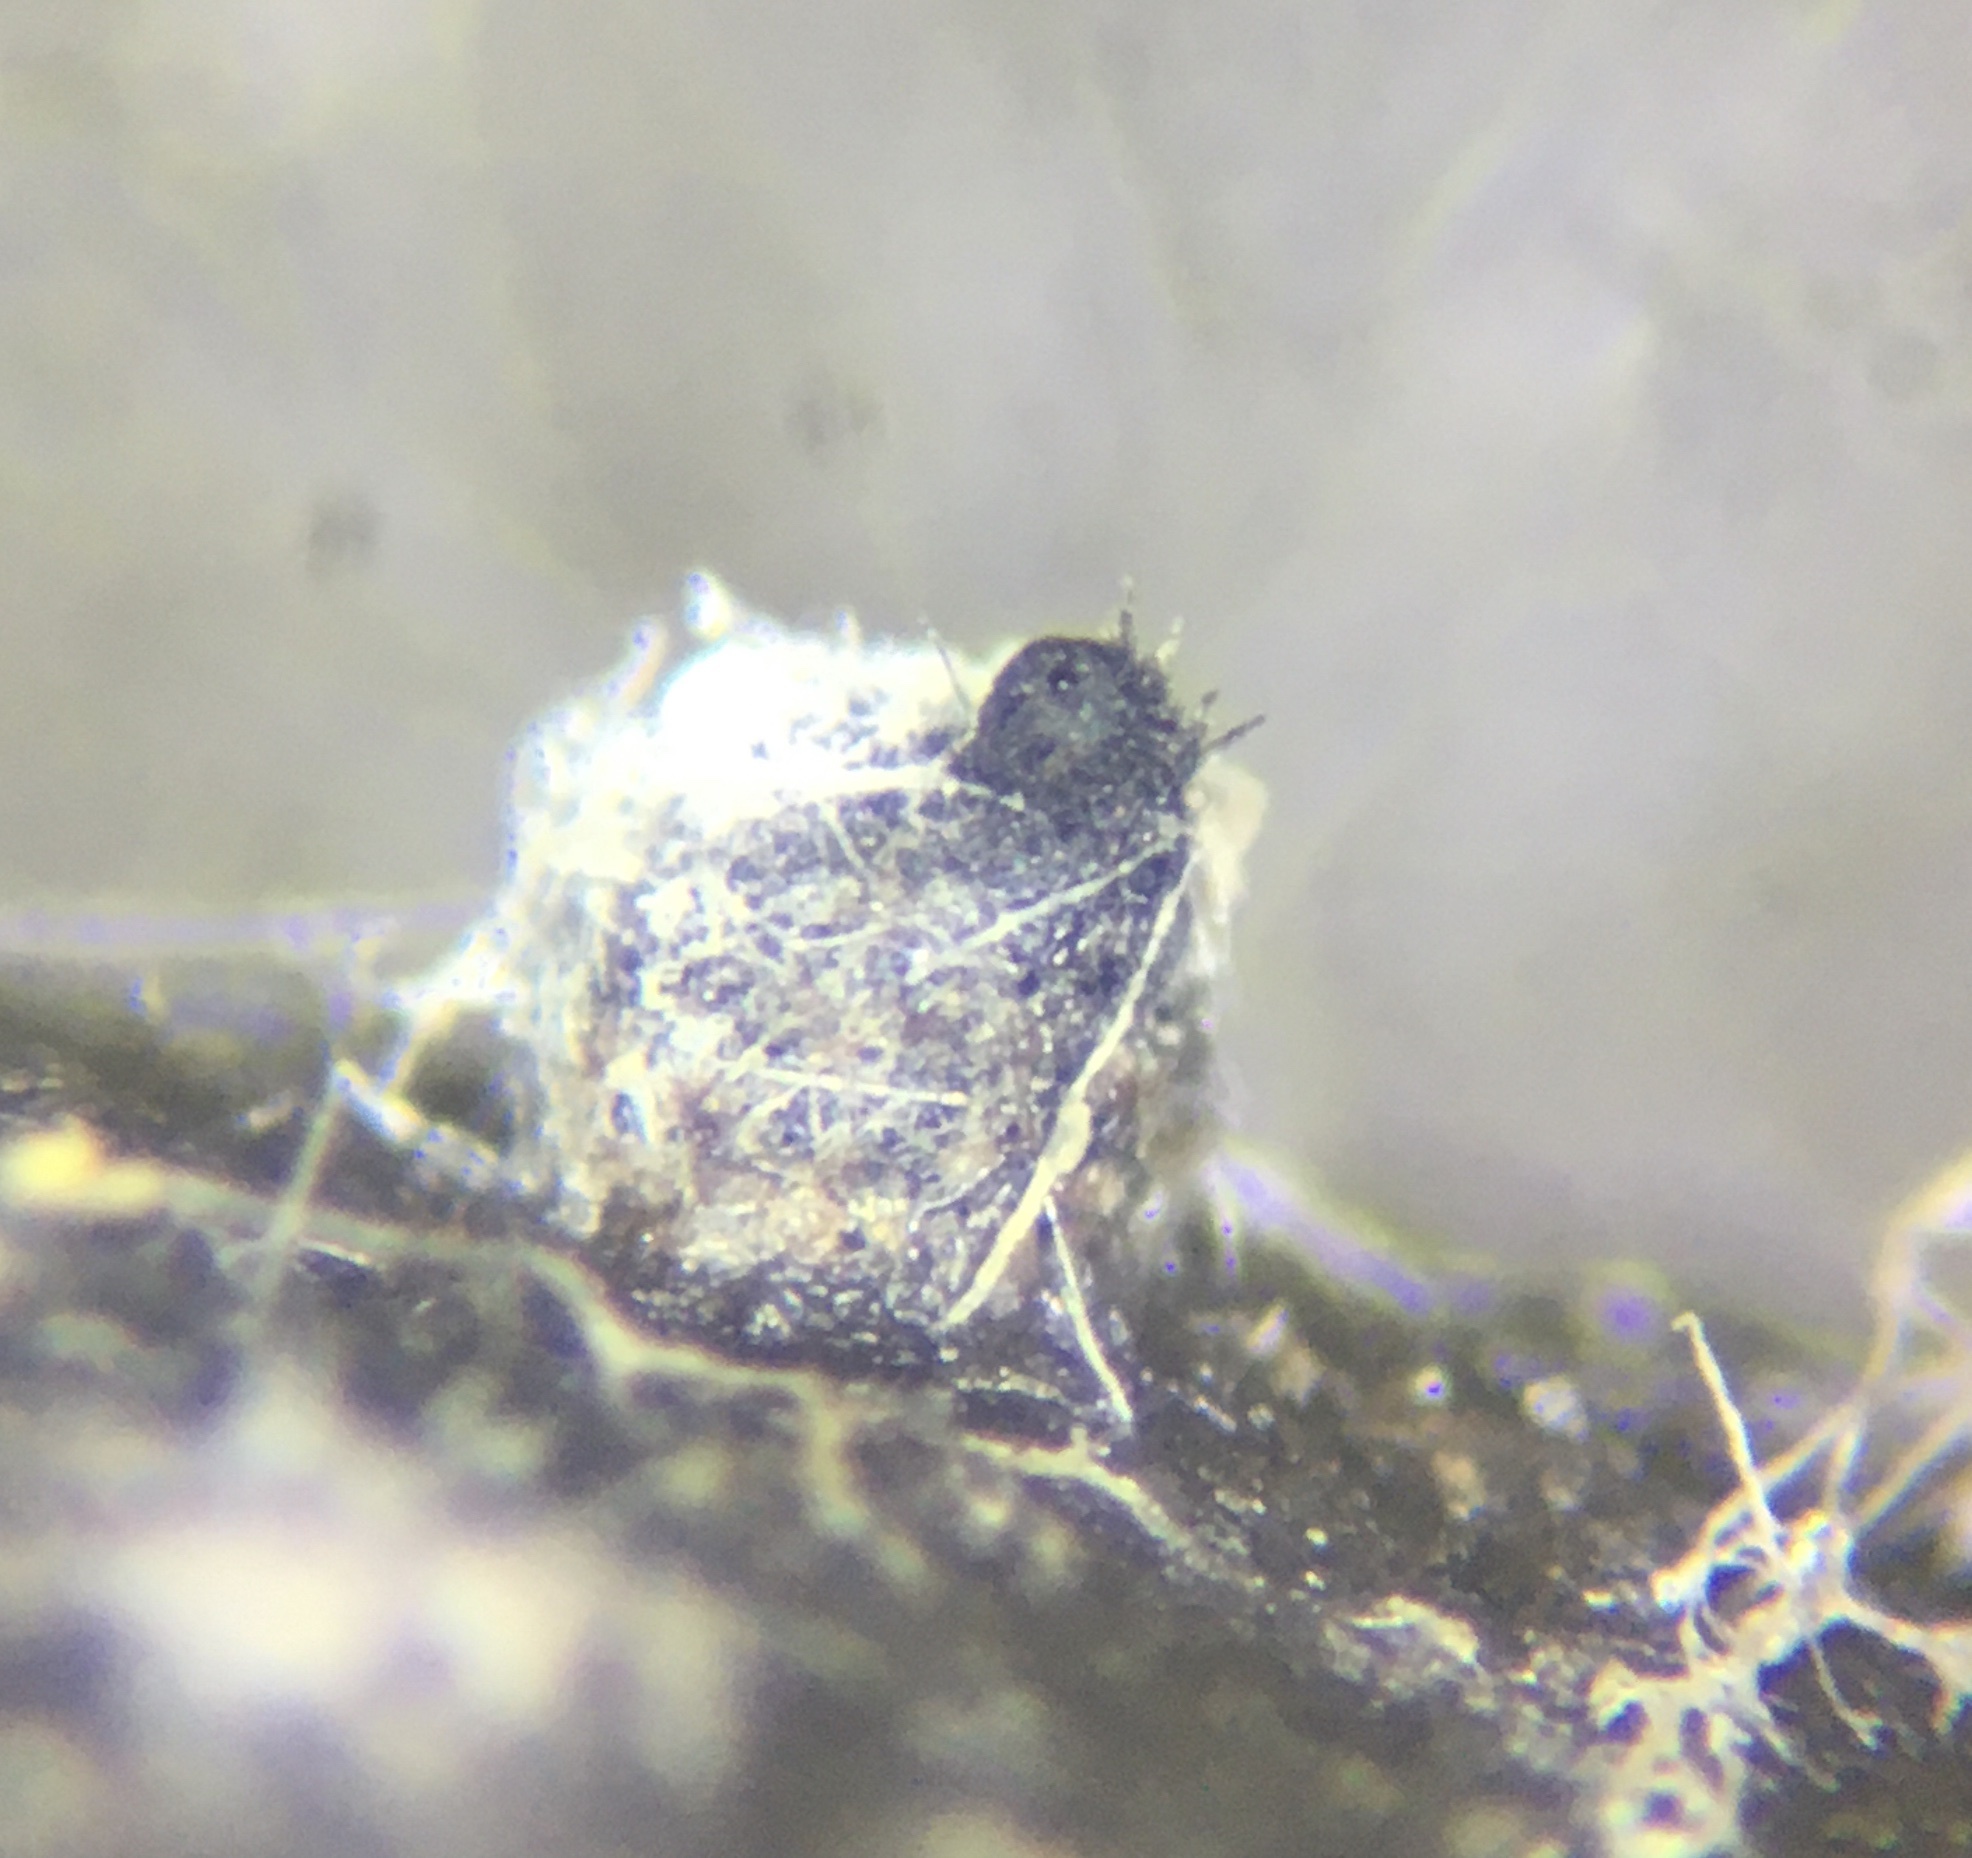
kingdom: Fungi
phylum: Ascomycota
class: Sordariomycetes
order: Sordariales
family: Podosporaceae
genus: Podospora
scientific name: Podospora collapsa
